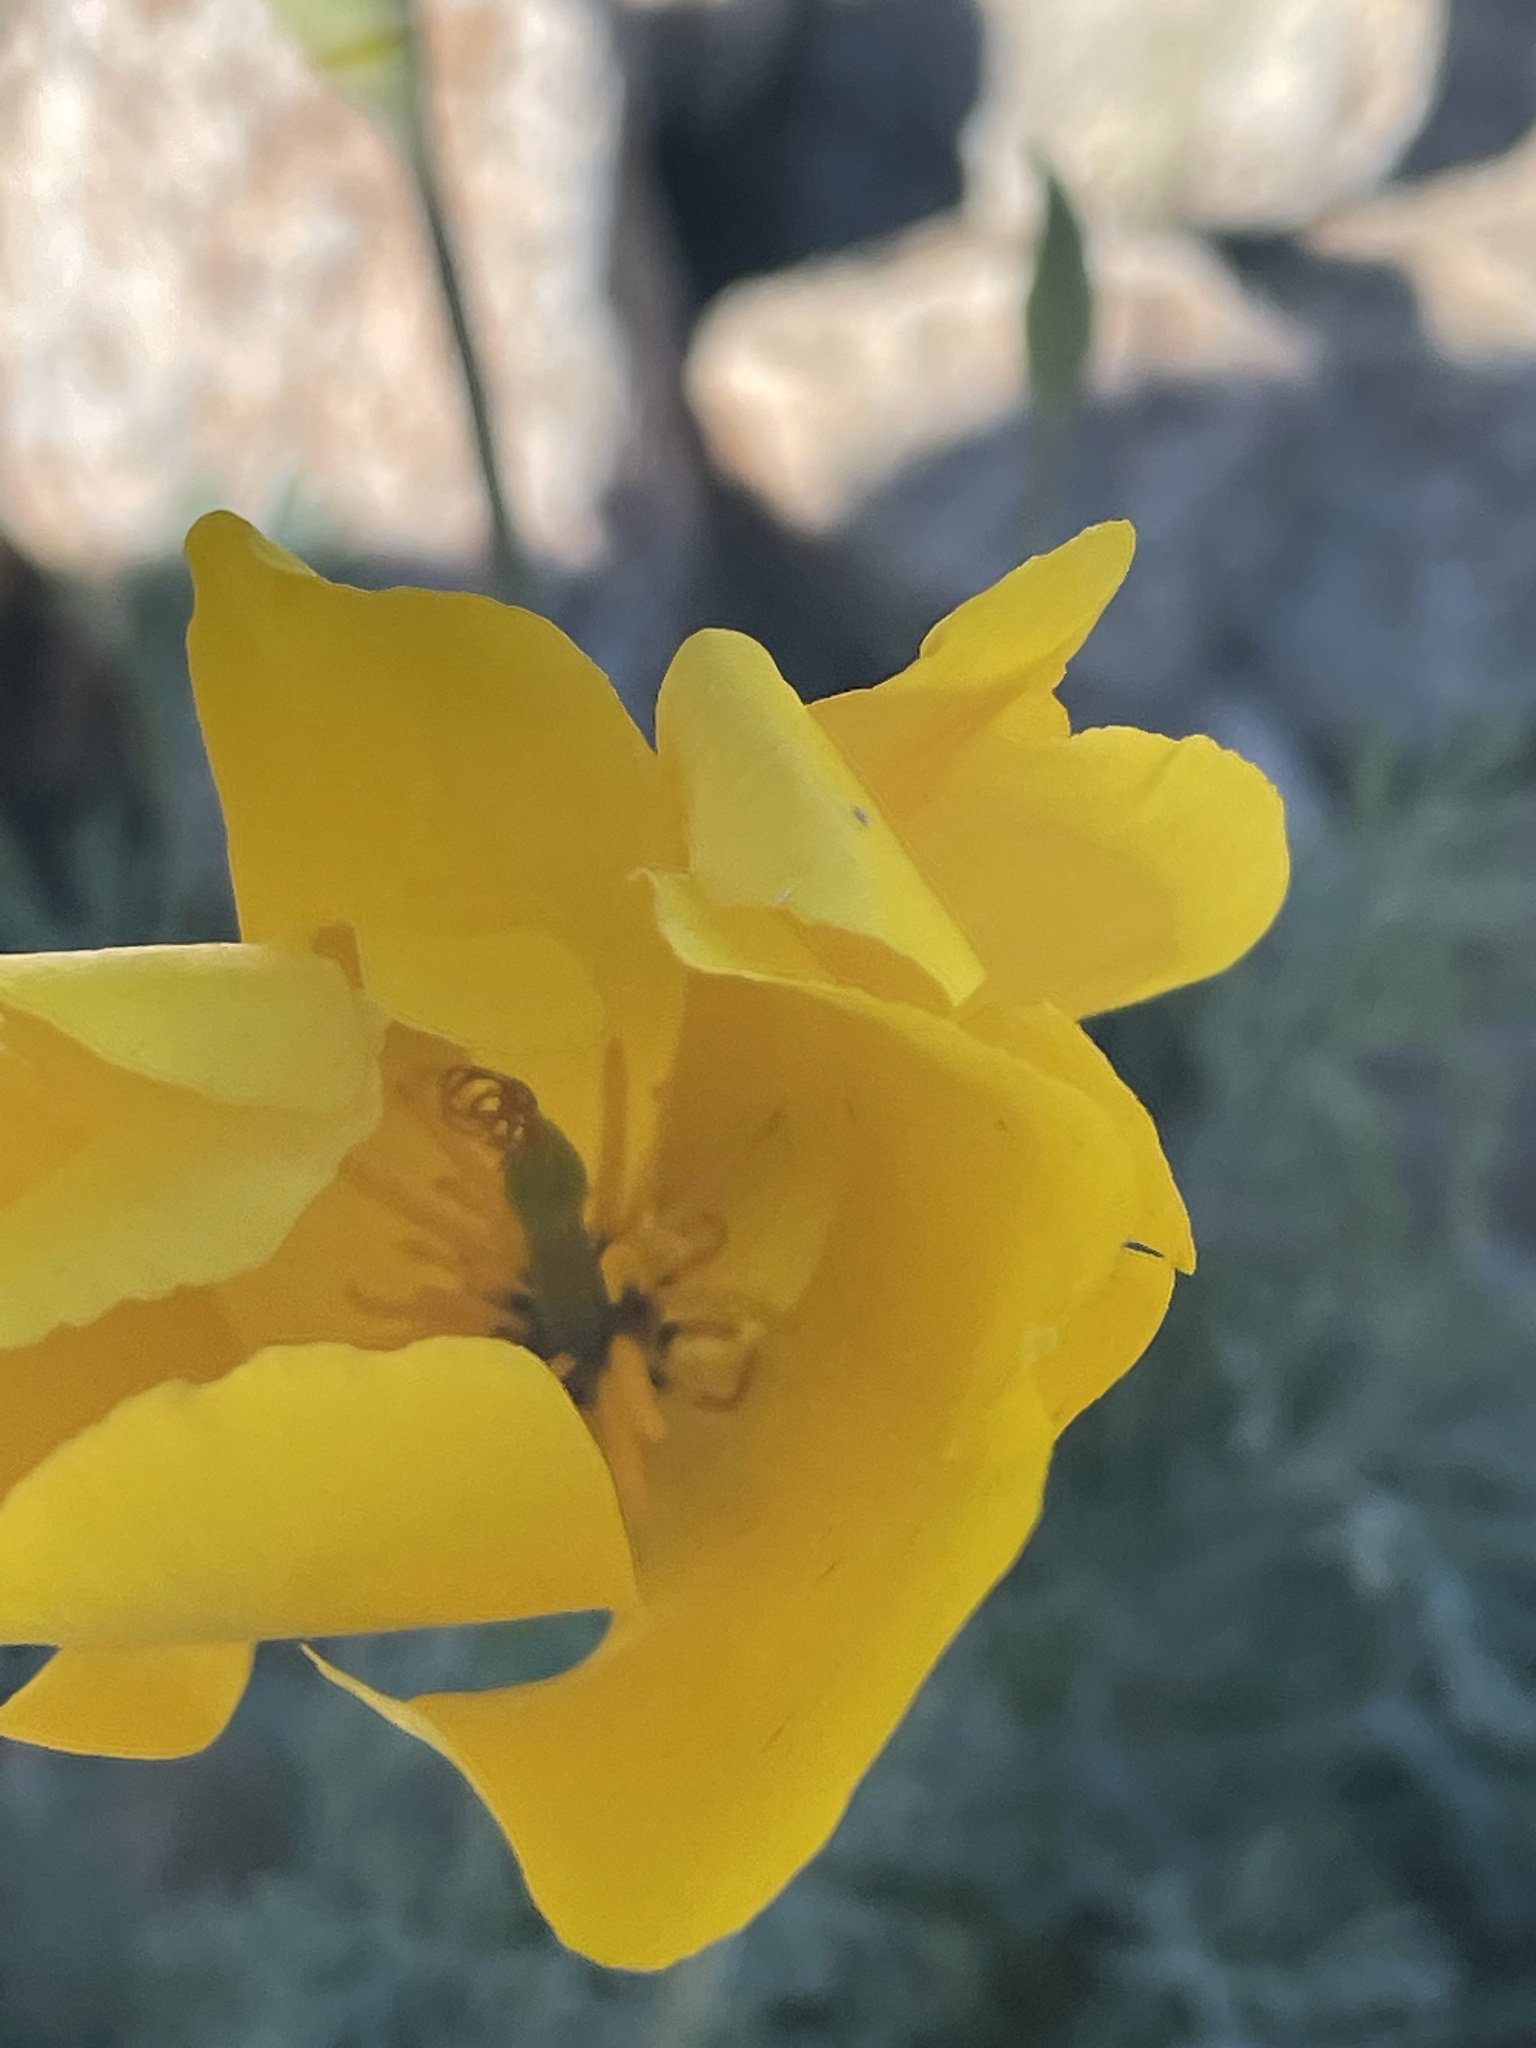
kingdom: Plantae
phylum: Tracheophyta
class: Magnoliopsida
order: Ranunculales
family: Papaveraceae
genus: Eschscholzia
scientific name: Eschscholzia californica
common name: California poppy
